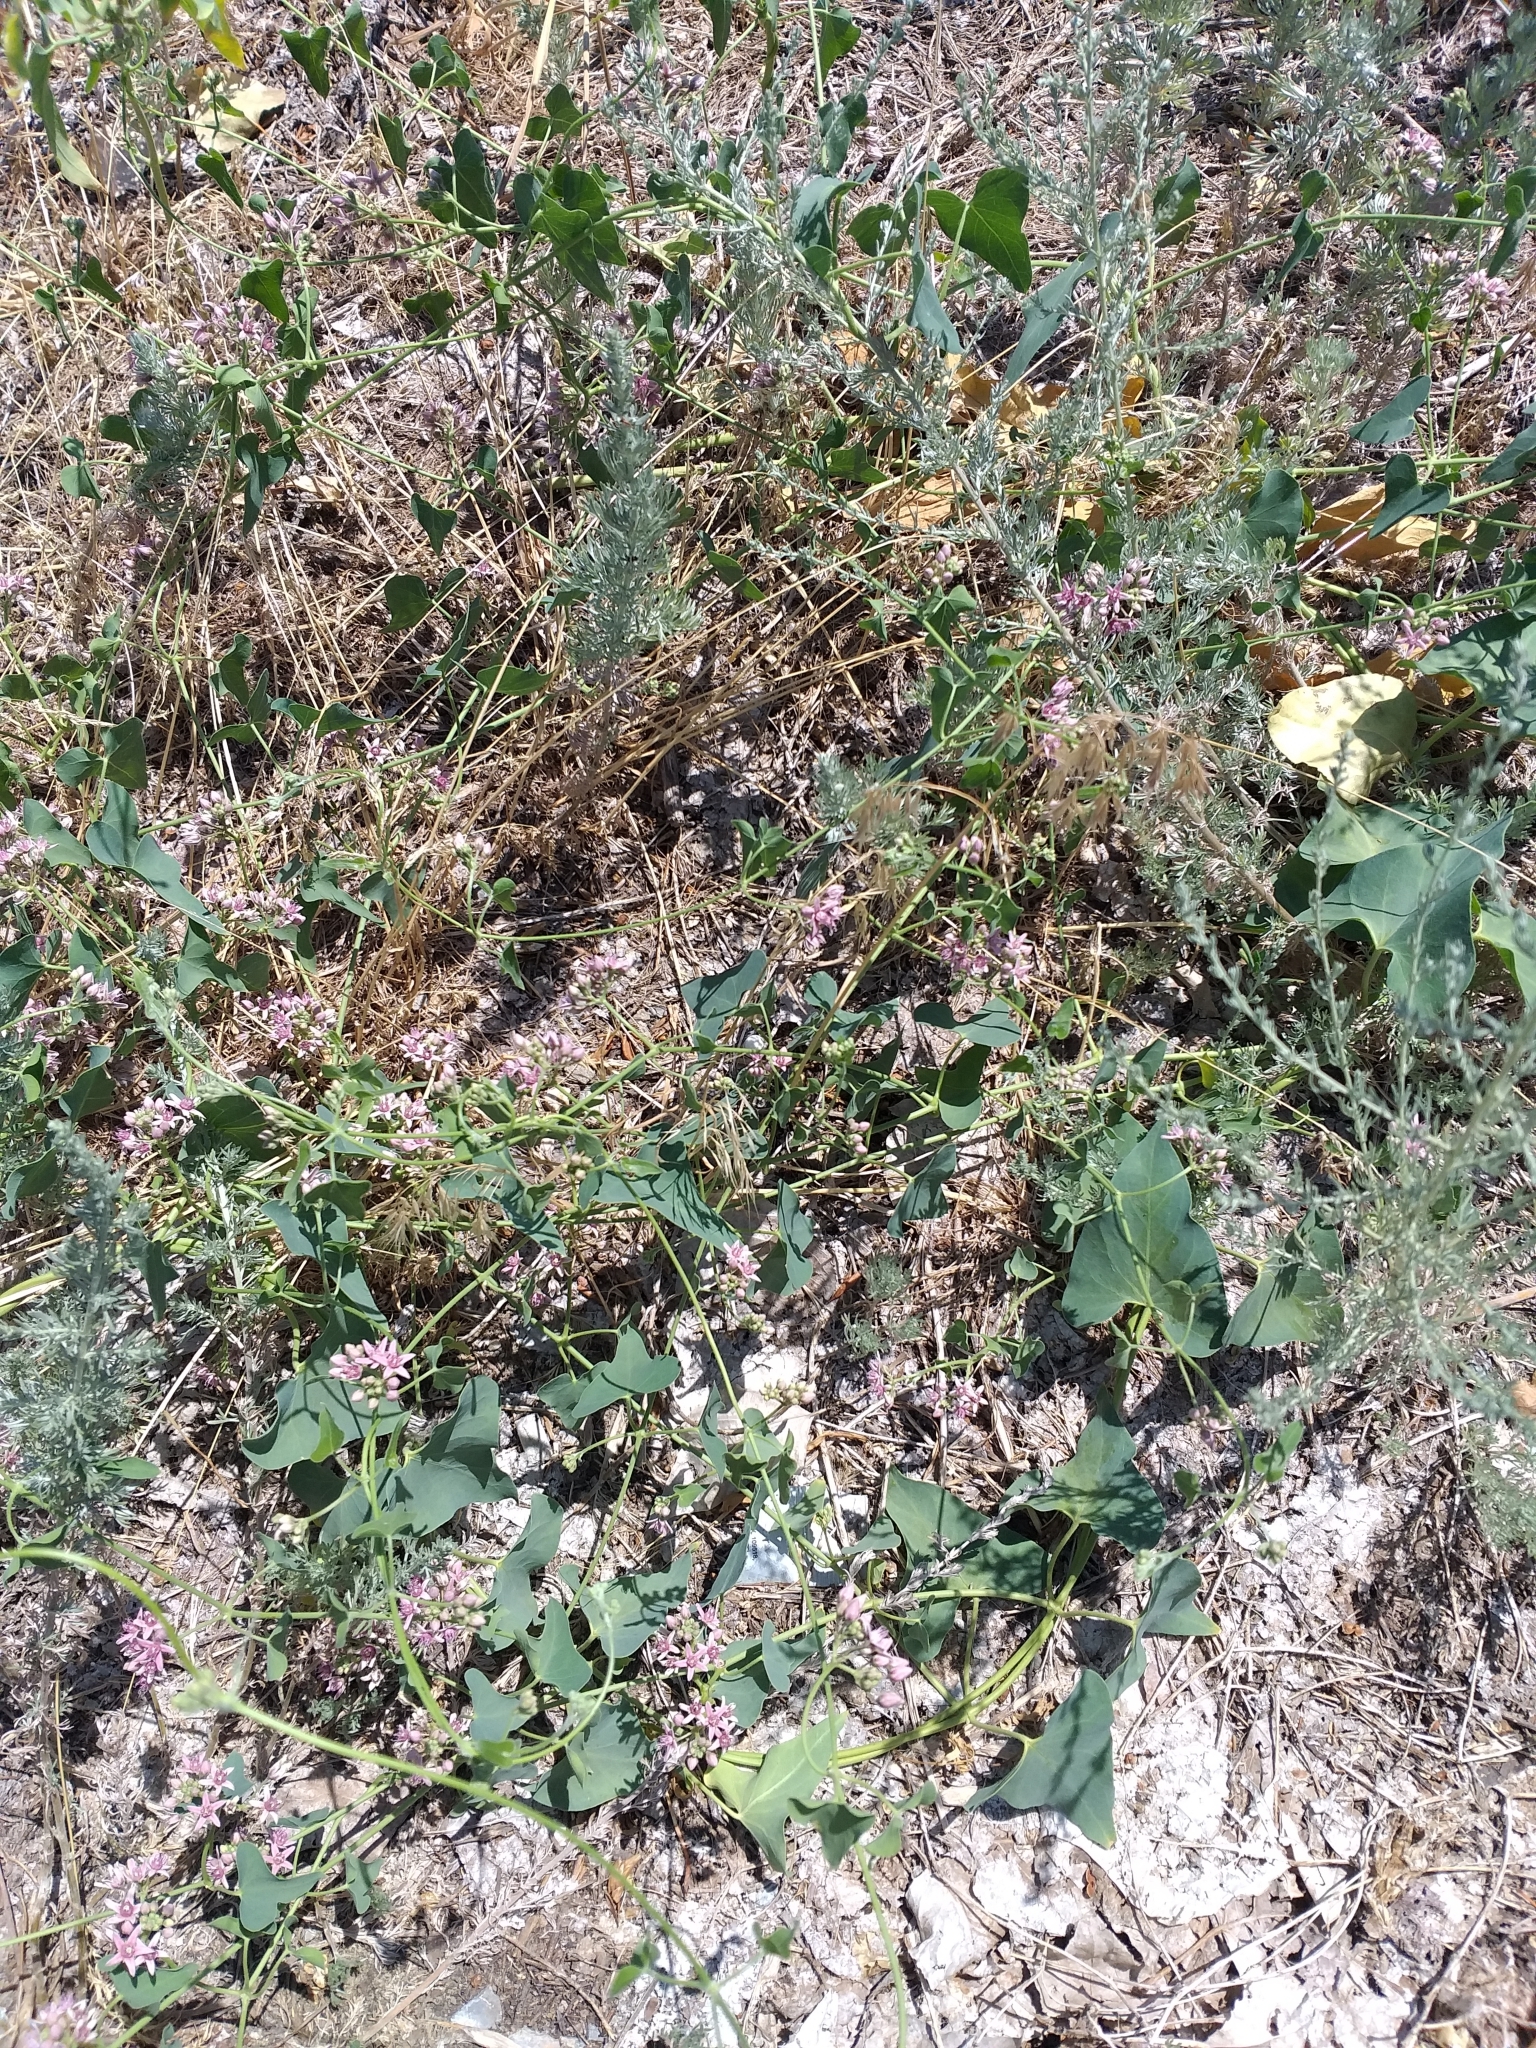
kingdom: Plantae
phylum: Tracheophyta
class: Magnoliopsida
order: Gentianales
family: Apocynaceae
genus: Cynanchum
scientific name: Cynanchum acutum
